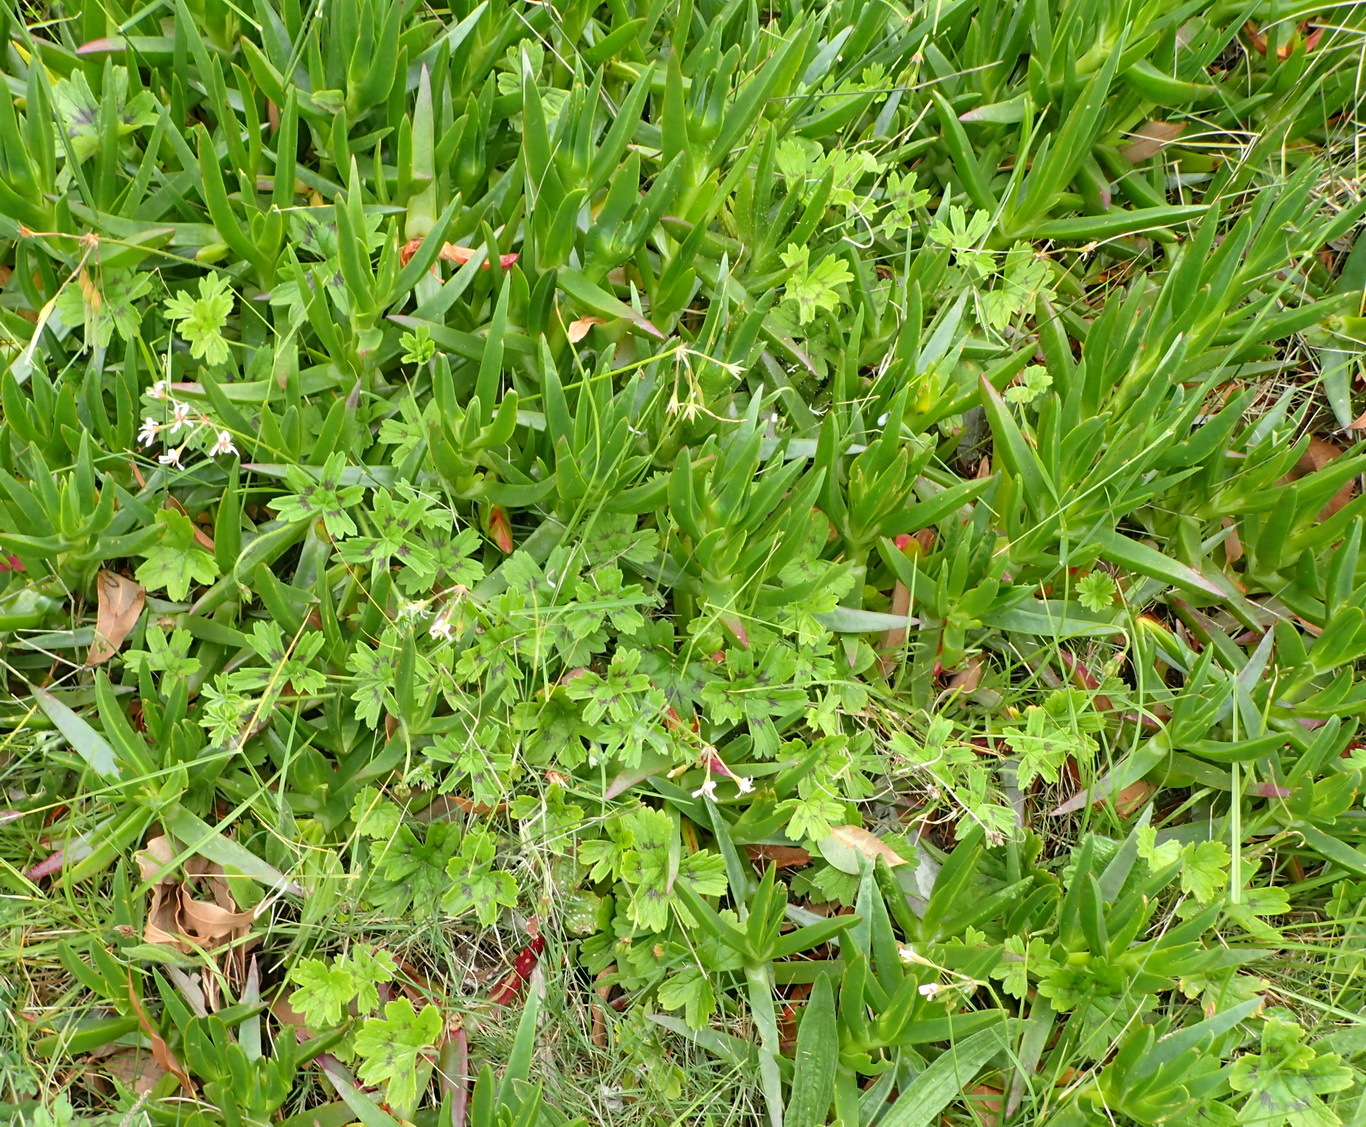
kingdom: Plantae
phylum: Tracheophyta
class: Magnoliopsida
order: Geraniales
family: Geraniaceae
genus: Pelargonium
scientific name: Pelargonium alchemilloides
